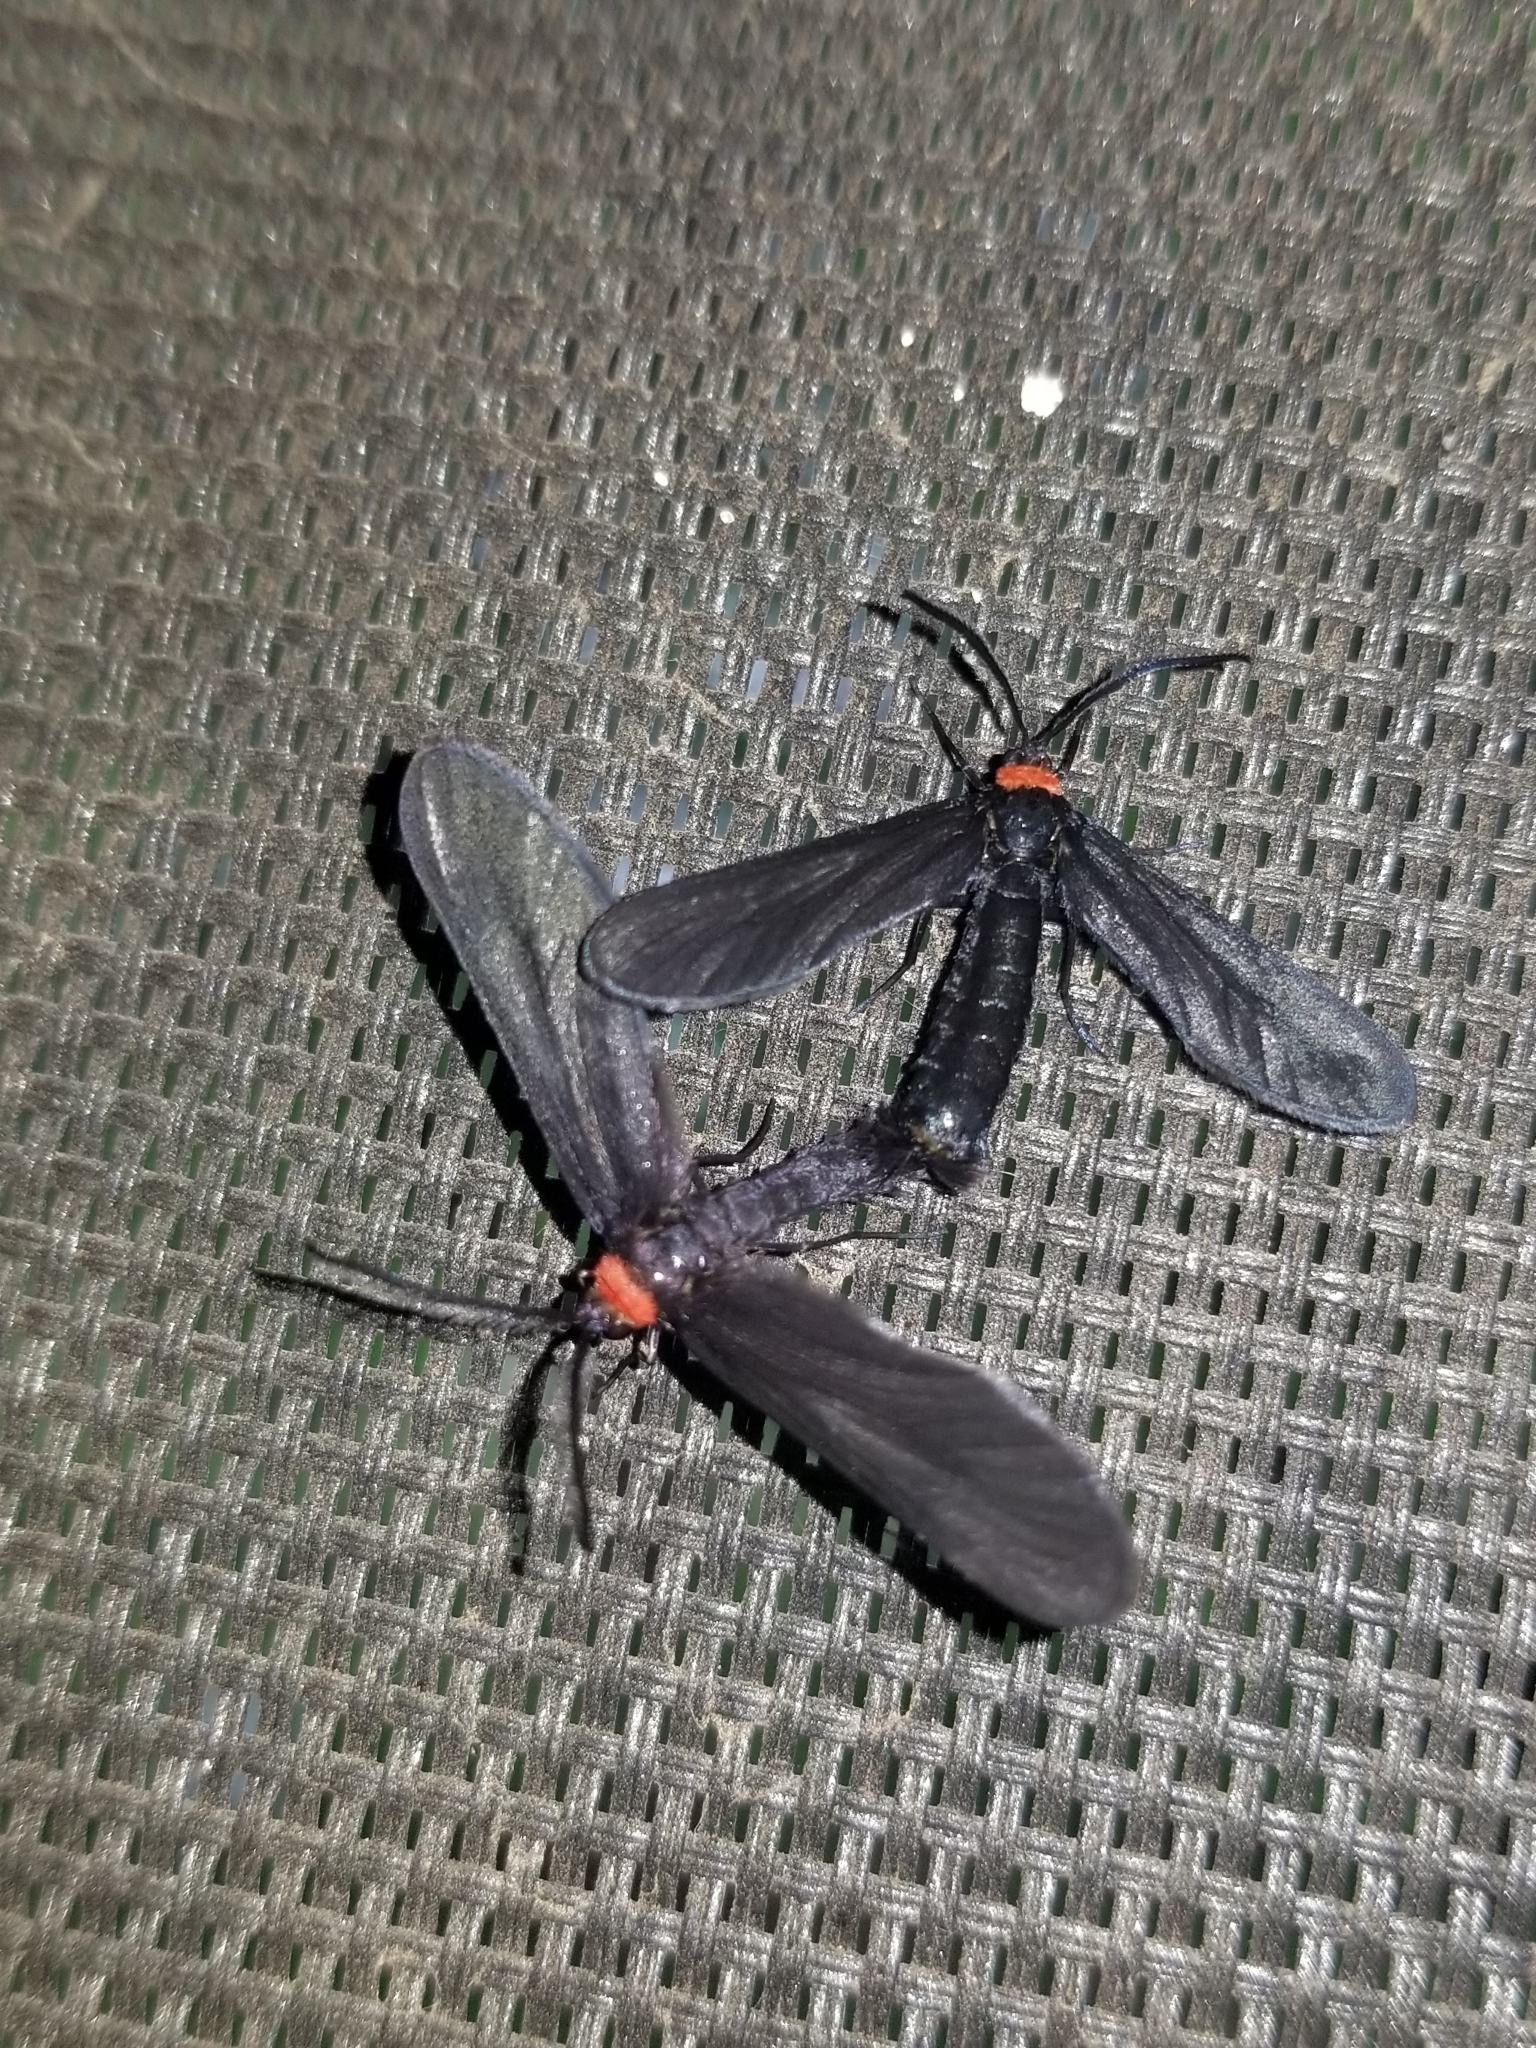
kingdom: Animalia
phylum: Arthropoda
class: Insecta
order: Lepidoptera
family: Zygaenidae
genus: Harrisina
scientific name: Harrisina americana
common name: Grapeleaf skeletonizer moth
